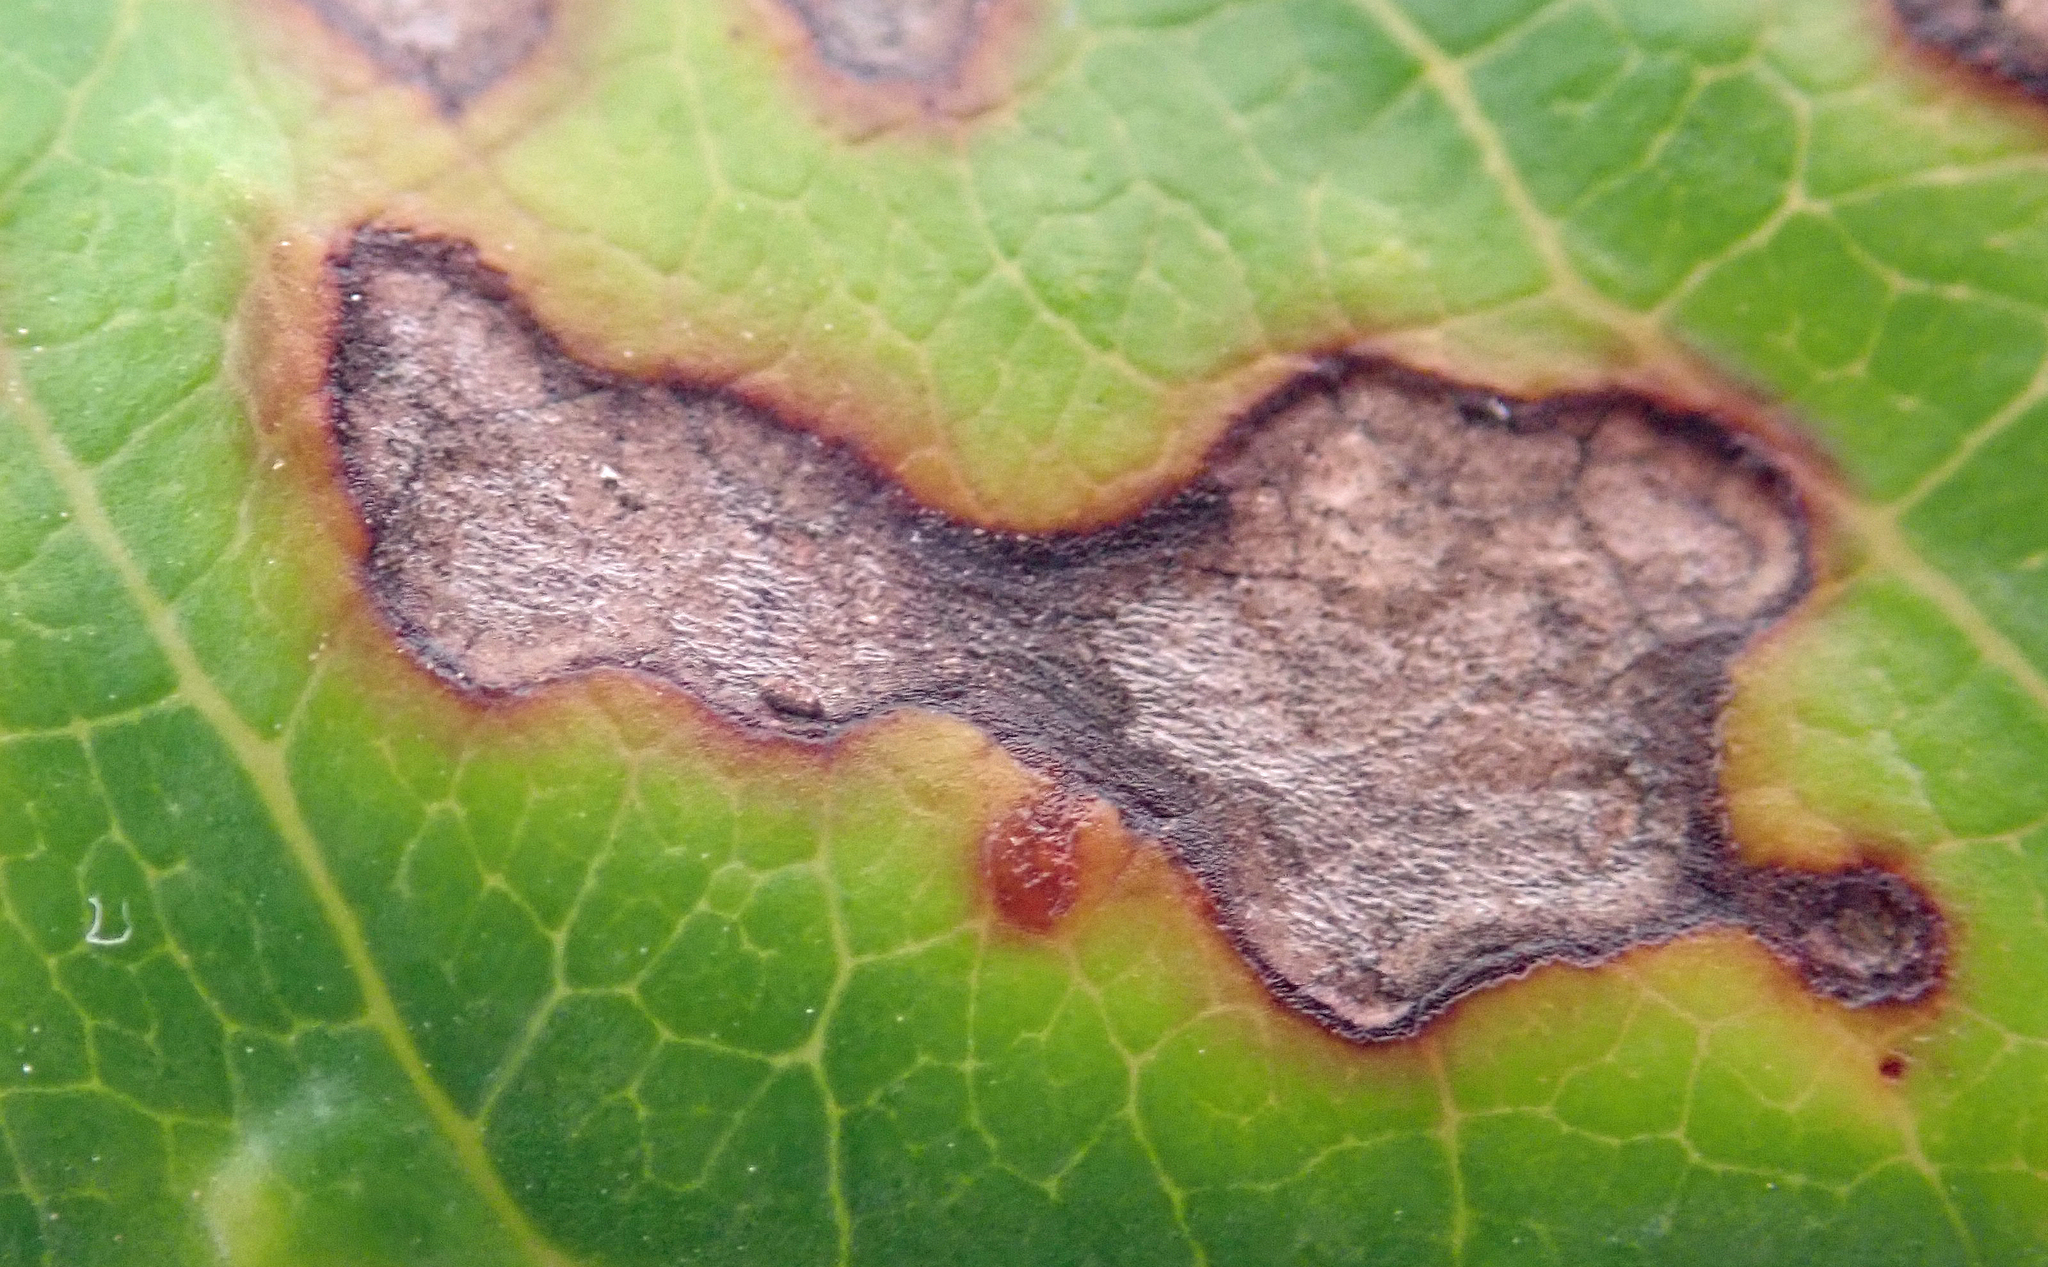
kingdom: Fungi
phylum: Basidiomycota
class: Pucciniomycetes
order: Pucciniales
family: Pucciniaceae
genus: Puccinia
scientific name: Puccinia coprosmae
